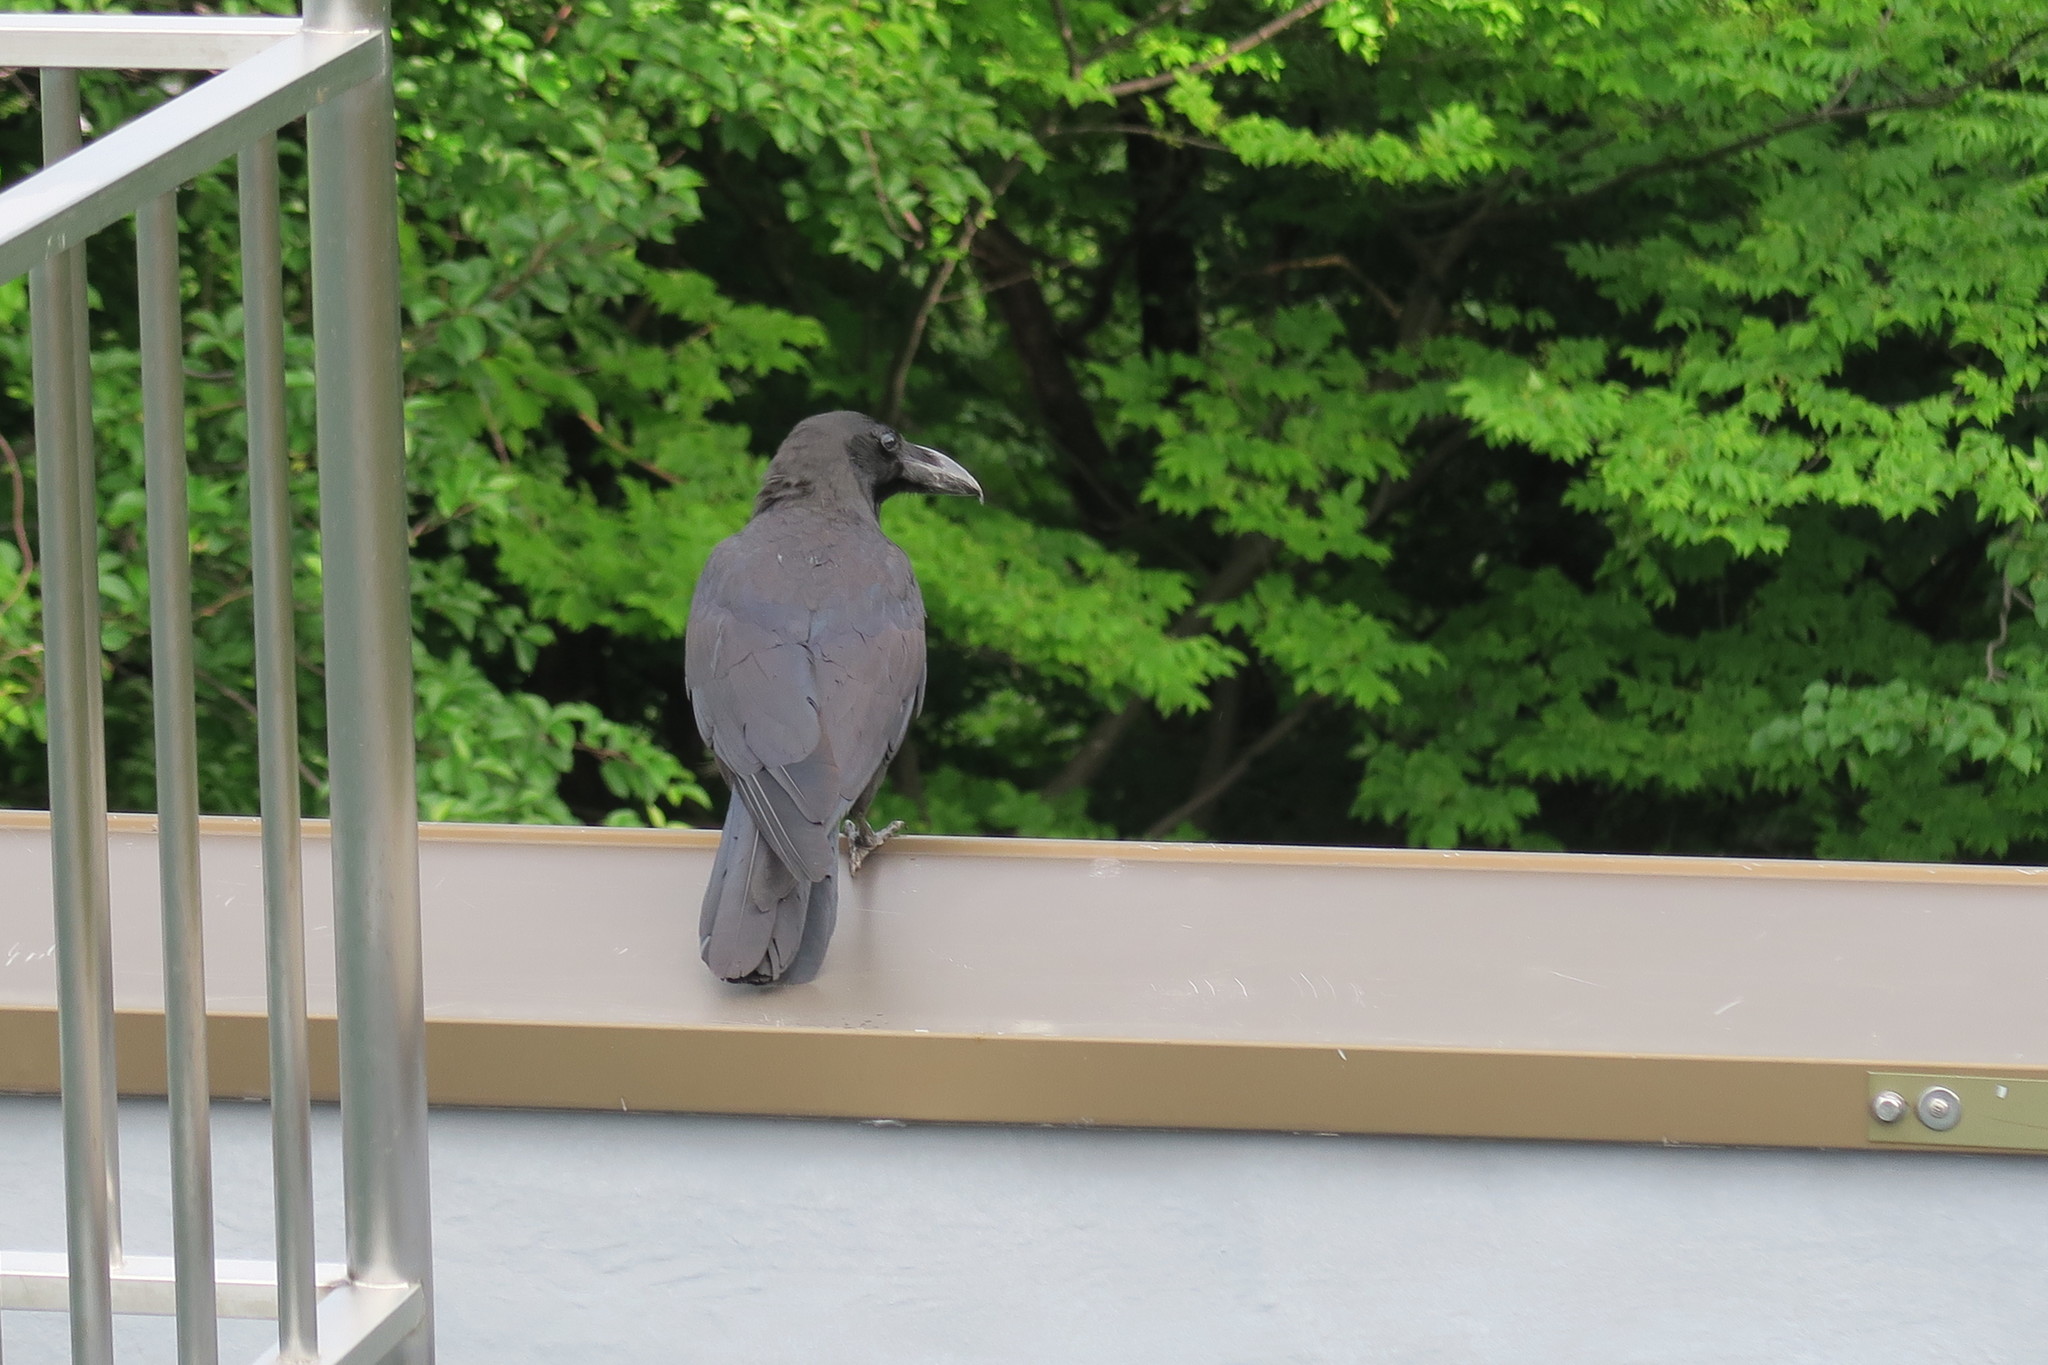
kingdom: Animalia
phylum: Chordata
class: Aves
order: Passeriformes
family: Corvidae
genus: Corvus
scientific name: Corvus macrorhynchos
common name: Large-billed crow
